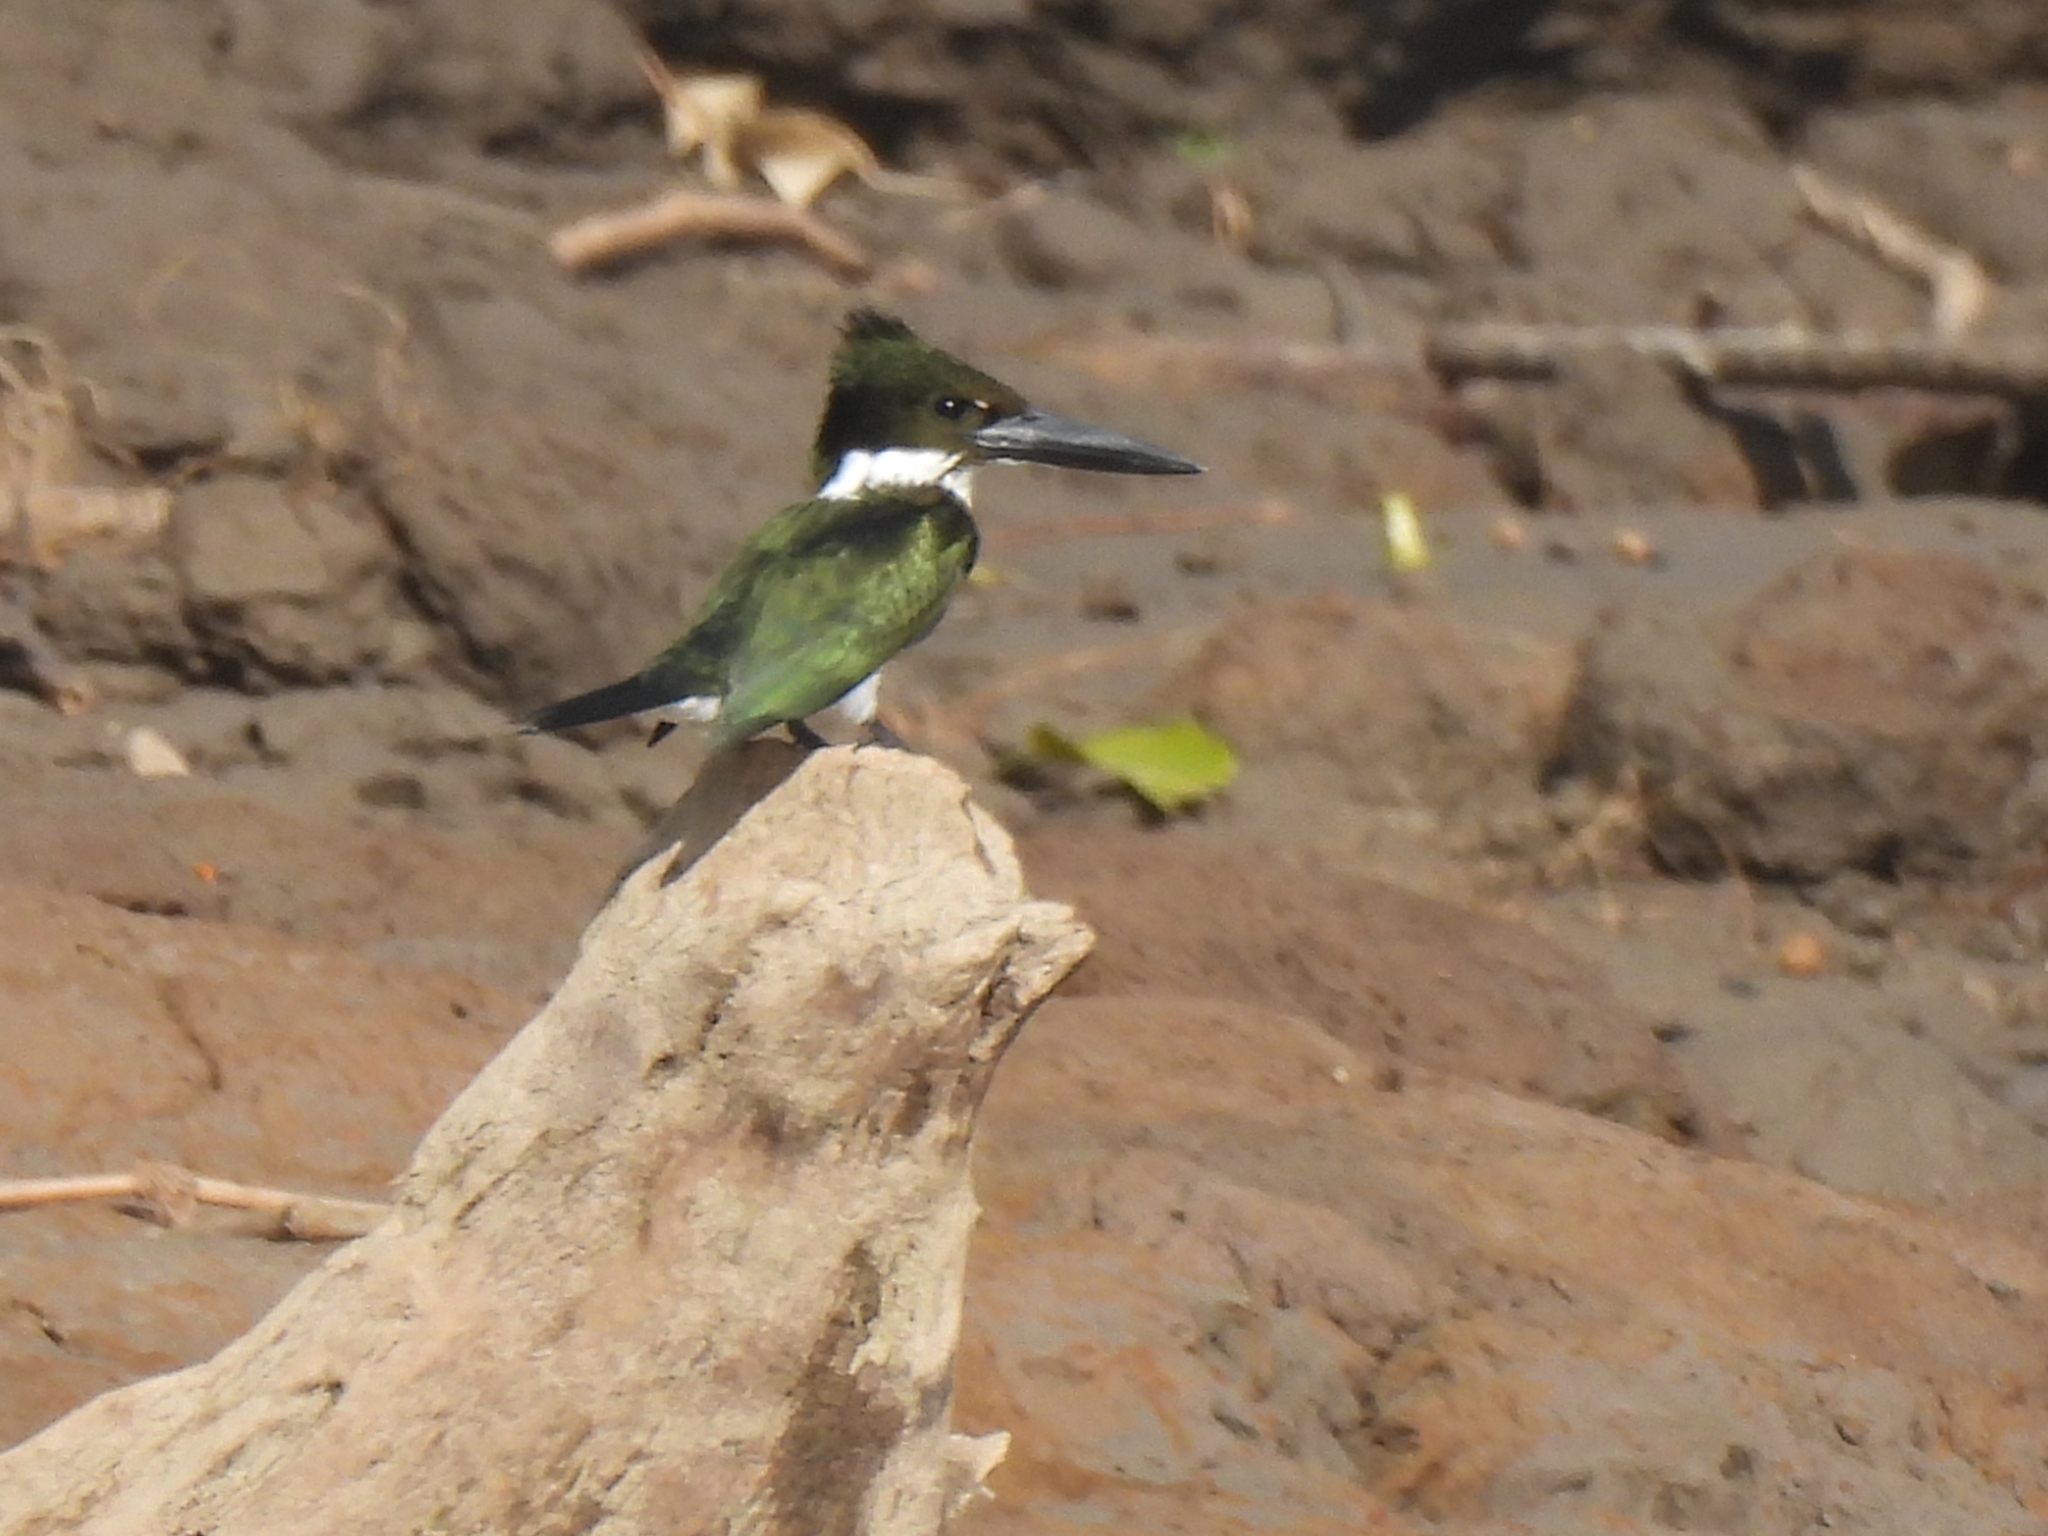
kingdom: Animalia
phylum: Chordata
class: Aves
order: Coraciiformes
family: Alcedinidae
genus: Chloroceryle
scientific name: Chloroceryle amazona
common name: Amazon kingfisher
